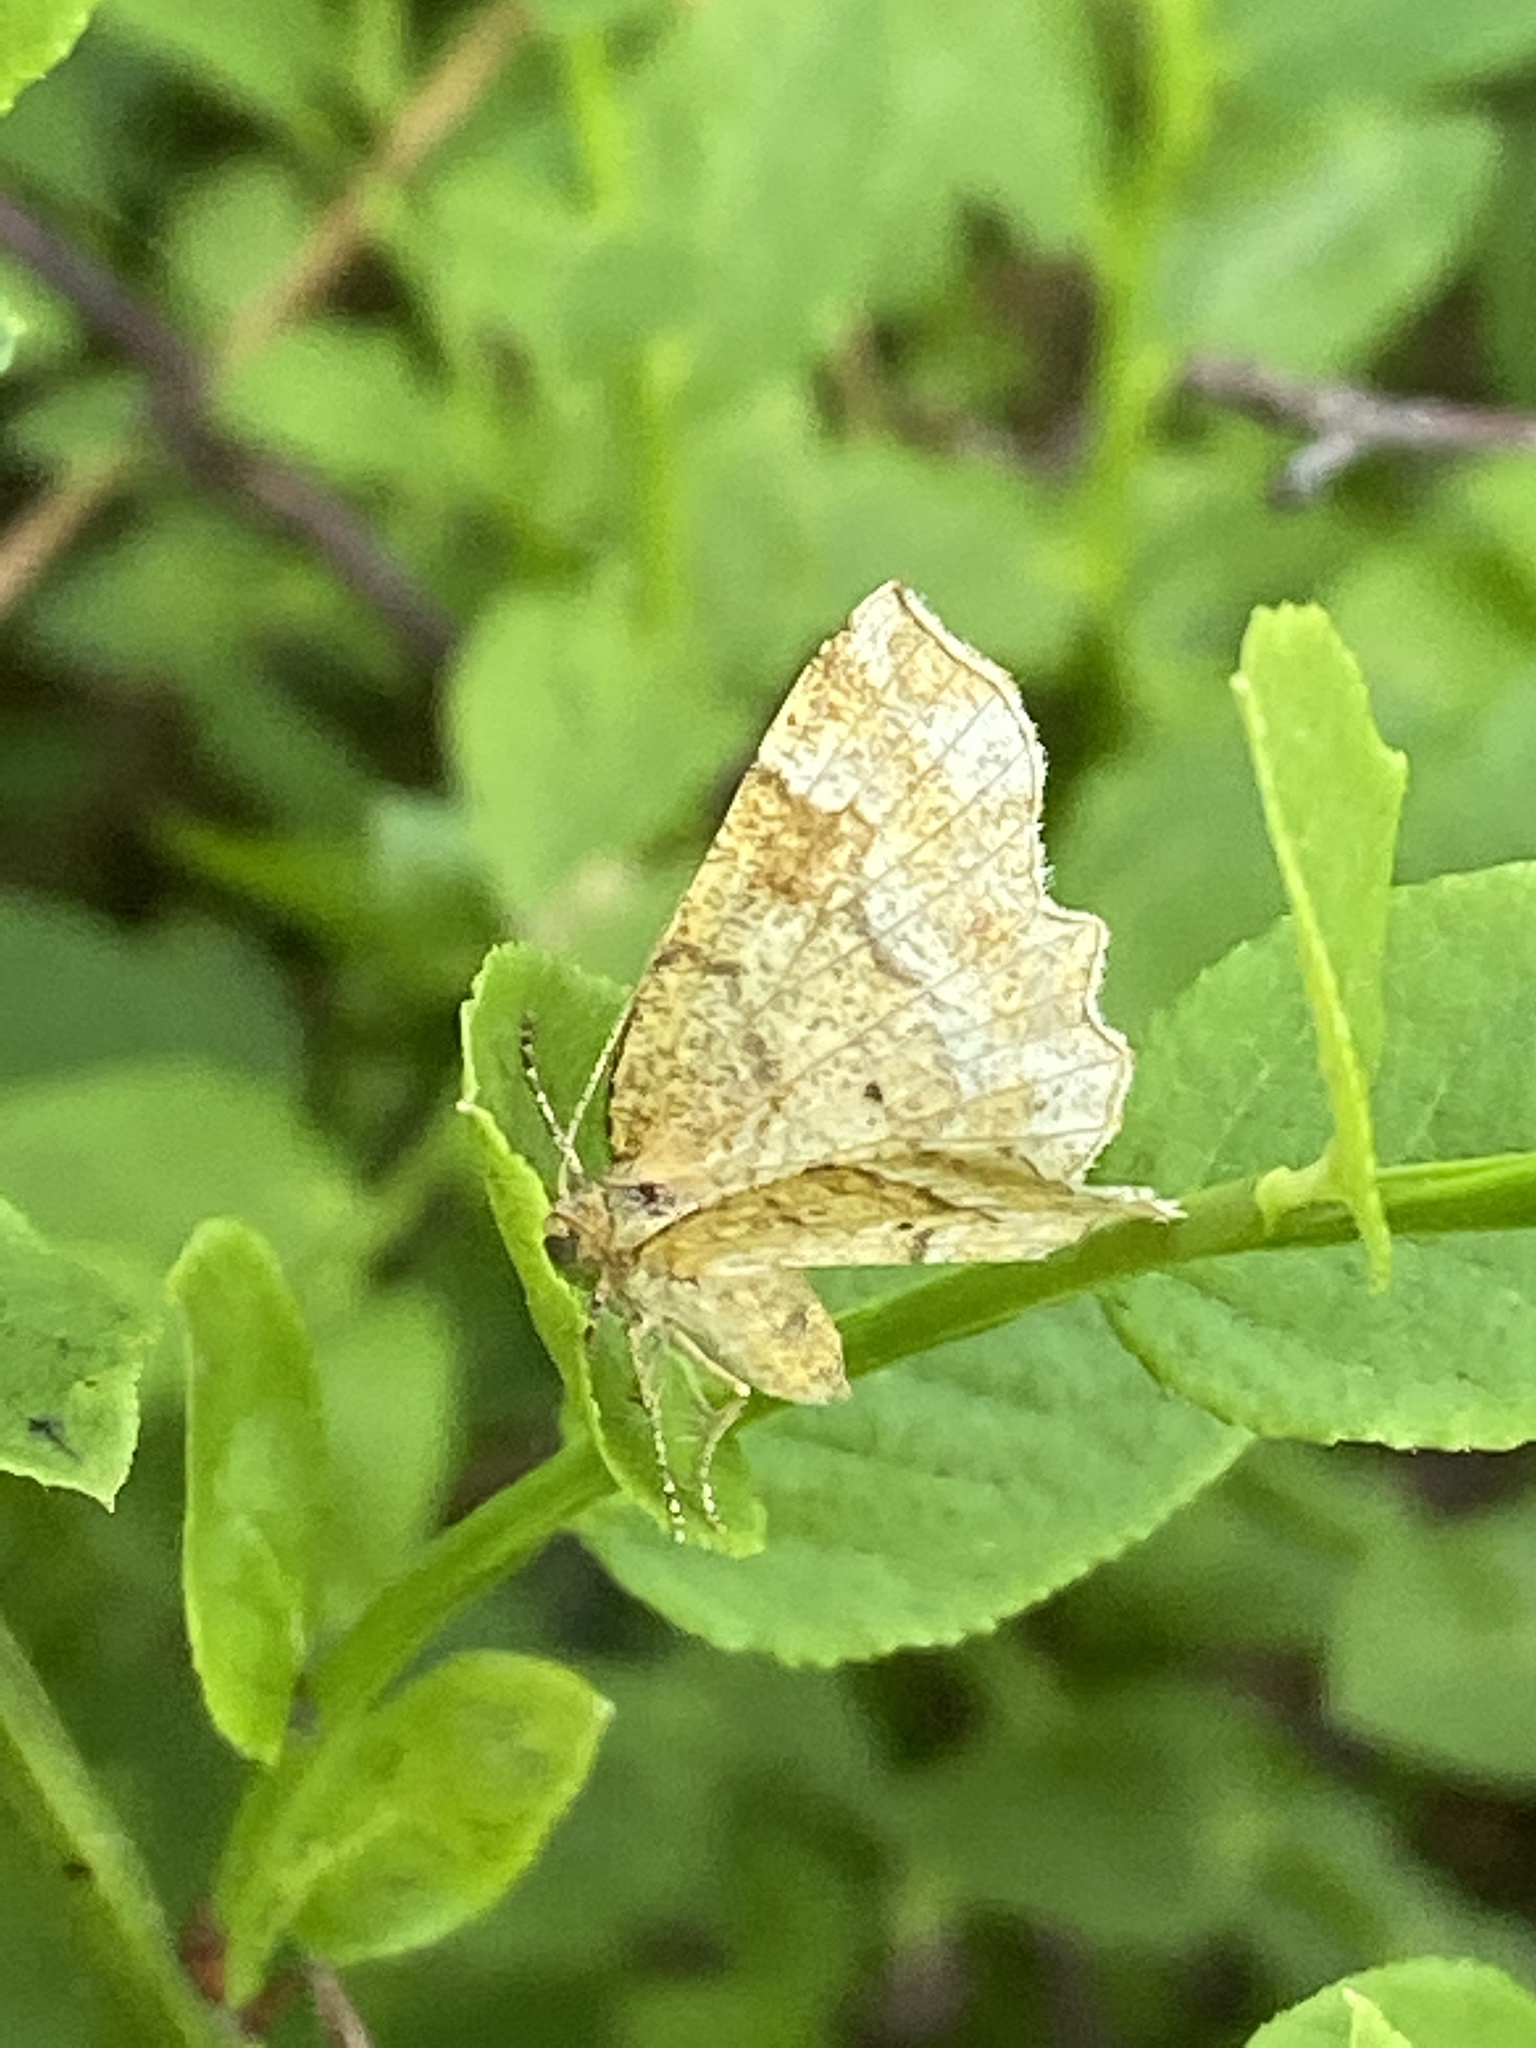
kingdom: Animalia
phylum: Arthropoda
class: Insecta
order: Lepidoptera
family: Geometridae
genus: Cepphis
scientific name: Cepphis advenaria
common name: Little thorn
